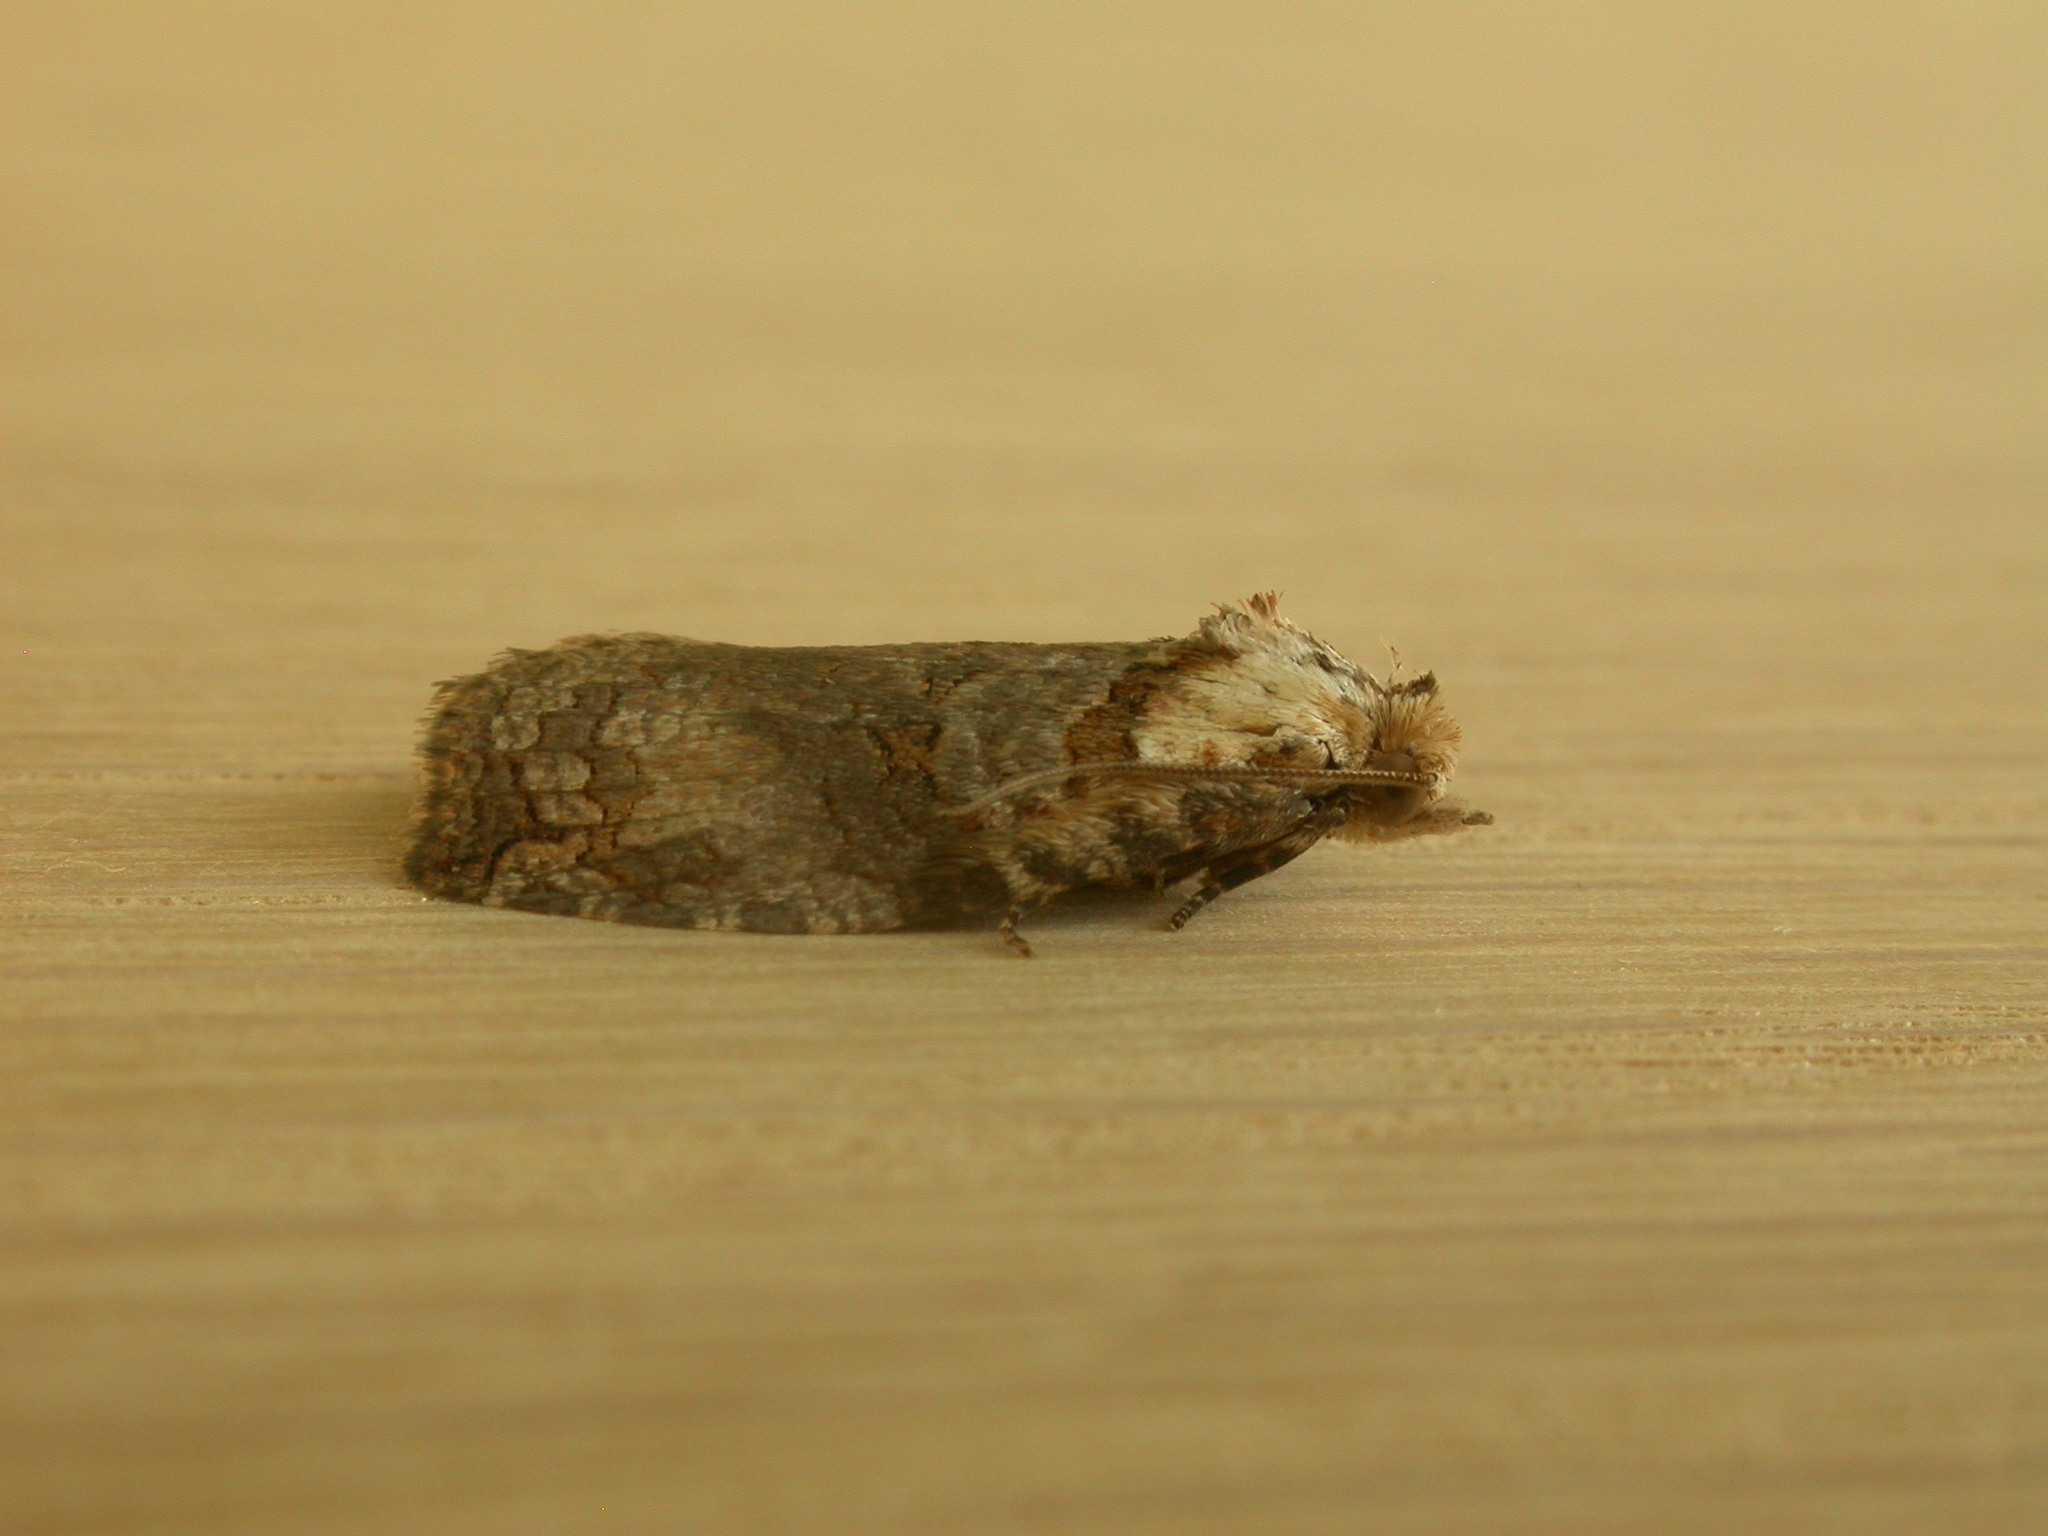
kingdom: Animalia
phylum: Arthropoda
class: Insecta
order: Lepidoptera
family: Tortricidae
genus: Cryptoptila
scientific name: Cryptoptila immersana
